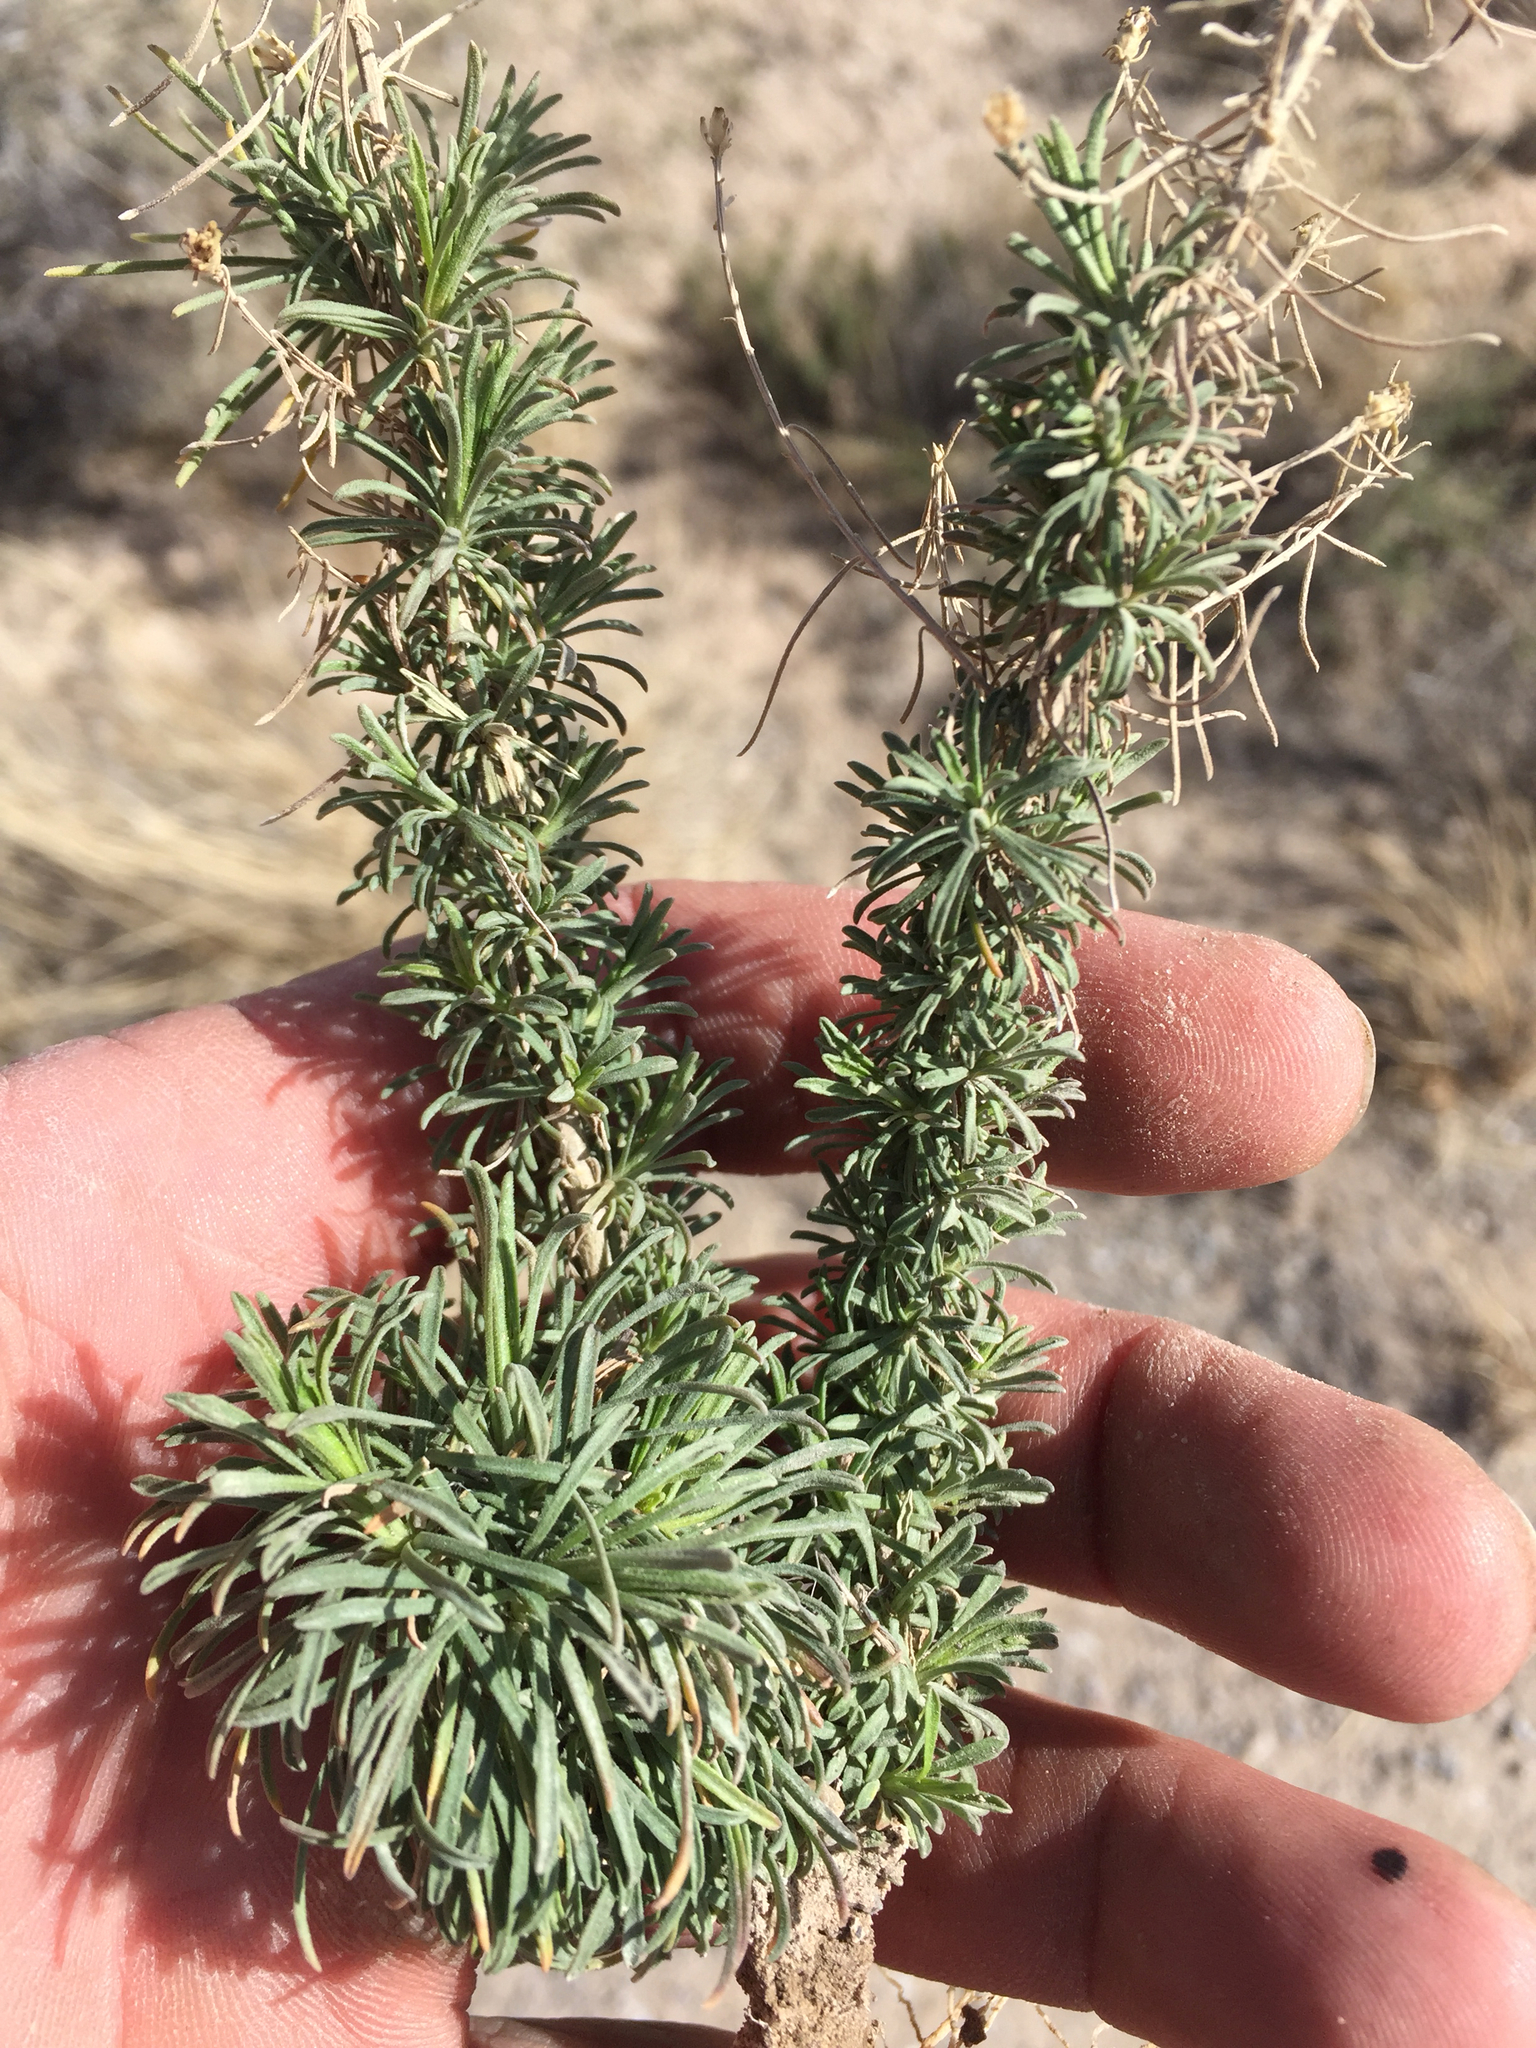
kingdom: Plantae
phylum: Tracheophyta
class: Magnoliopsida
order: Asterales
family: Asteraceae
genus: Gutierrezia
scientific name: Gutierrezia sarothrae
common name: Broom snakeweed
